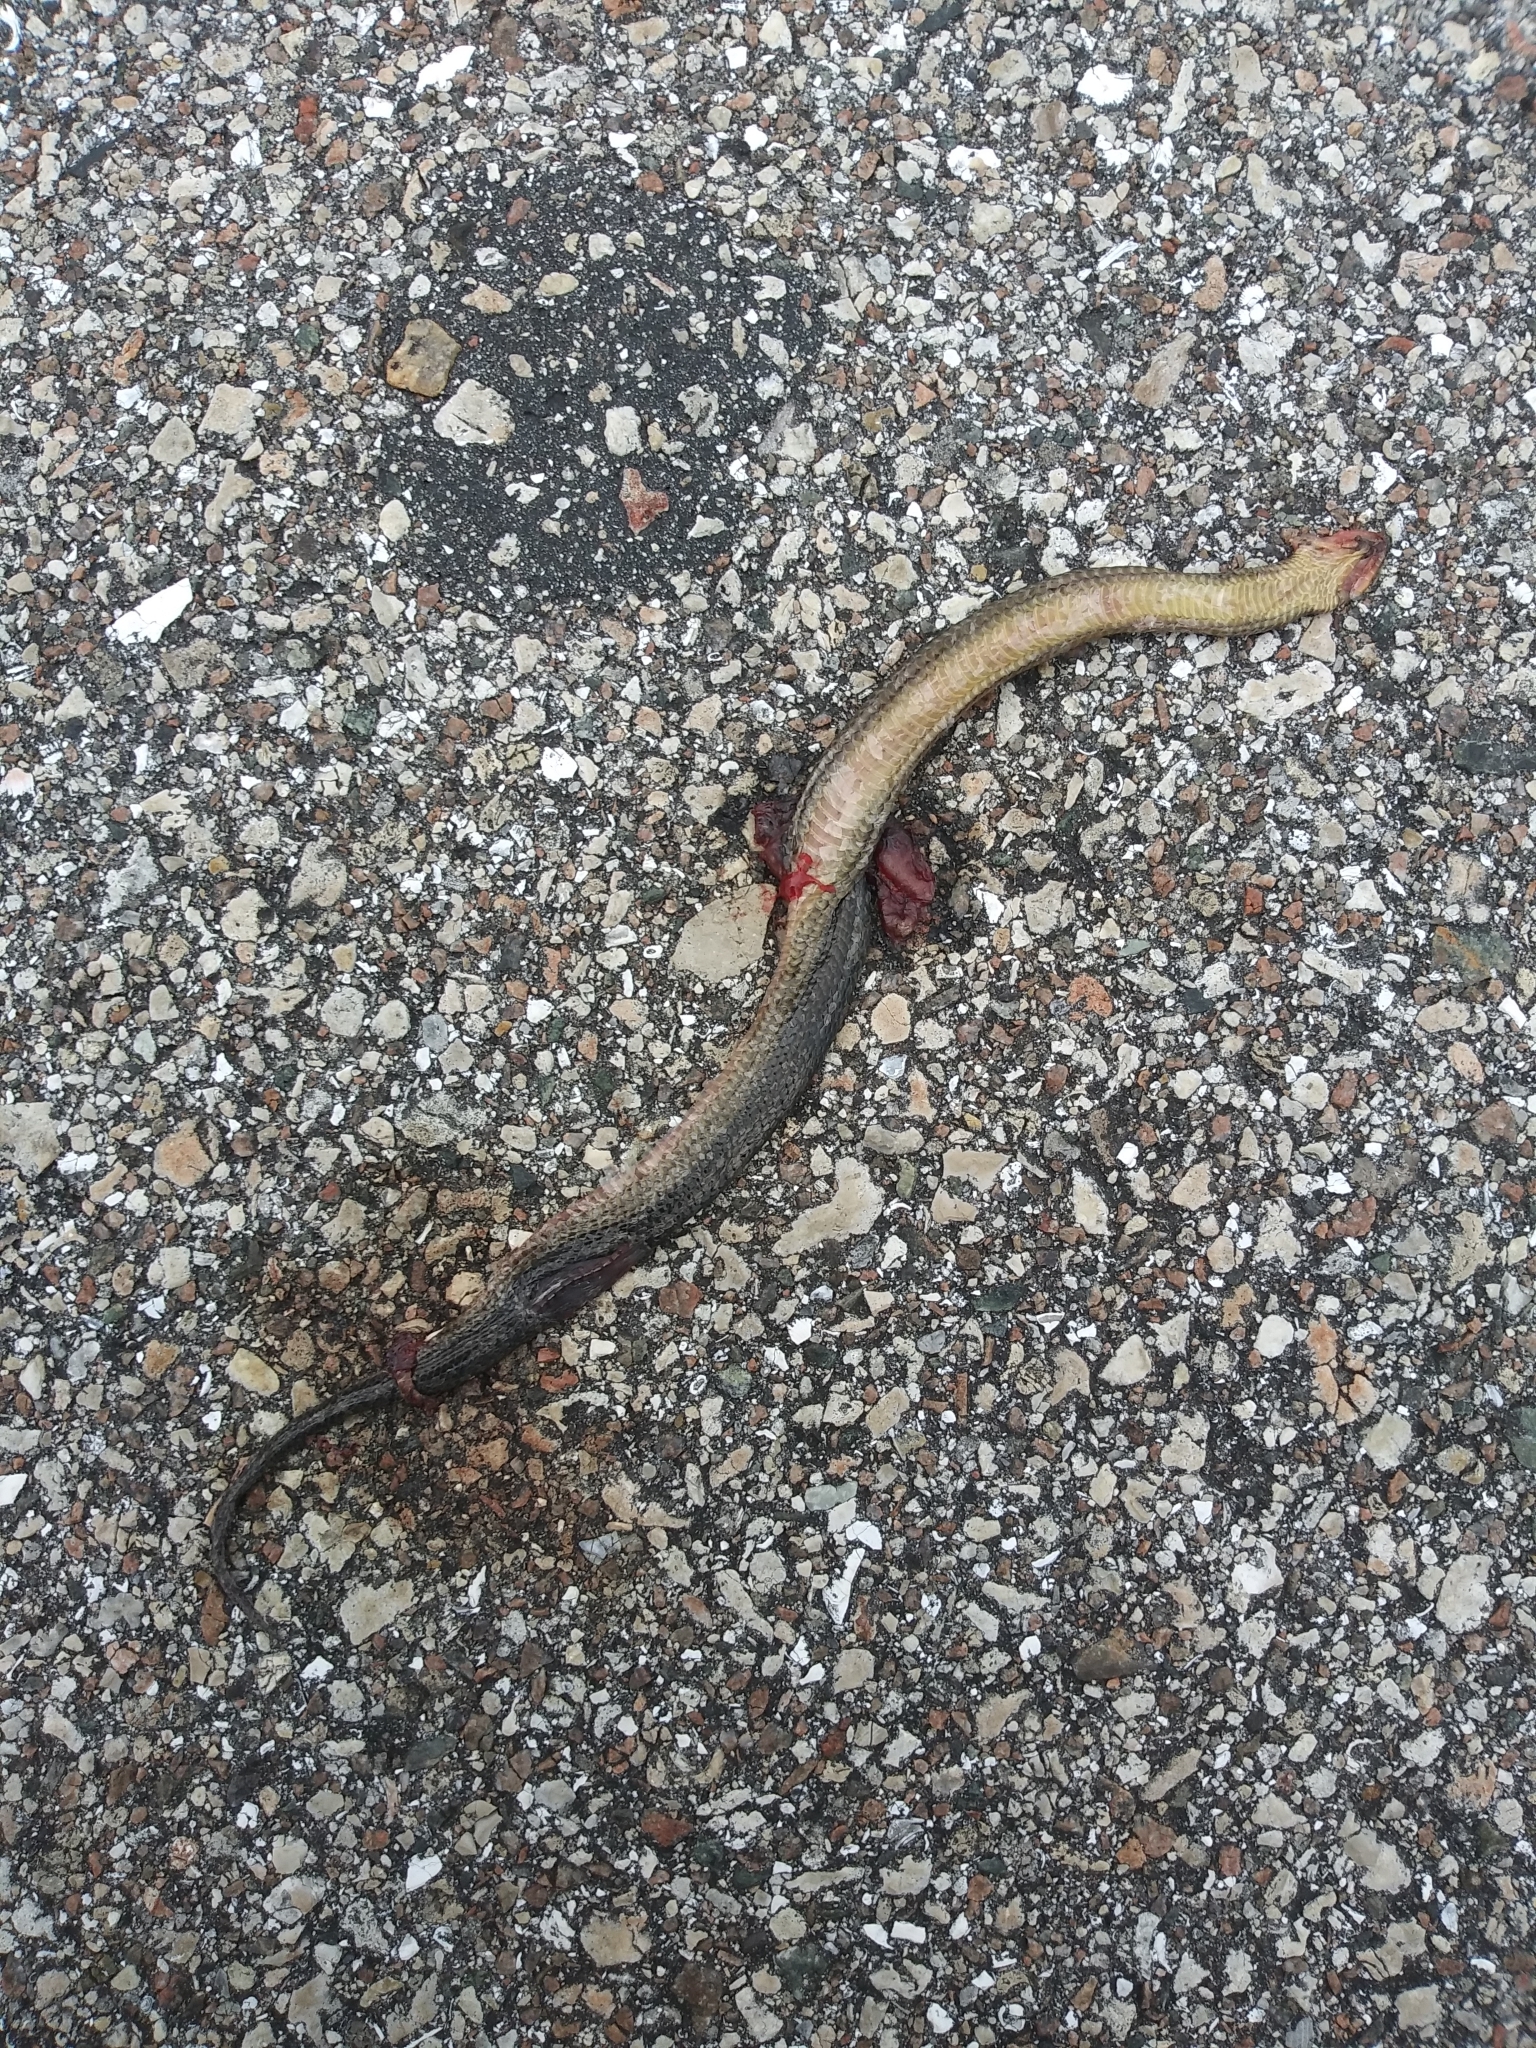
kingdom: Animalia
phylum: Chordata
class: Squamata
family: Colubridae
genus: Liodytes
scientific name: Liodytes alleni
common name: Striped crayfish snake
